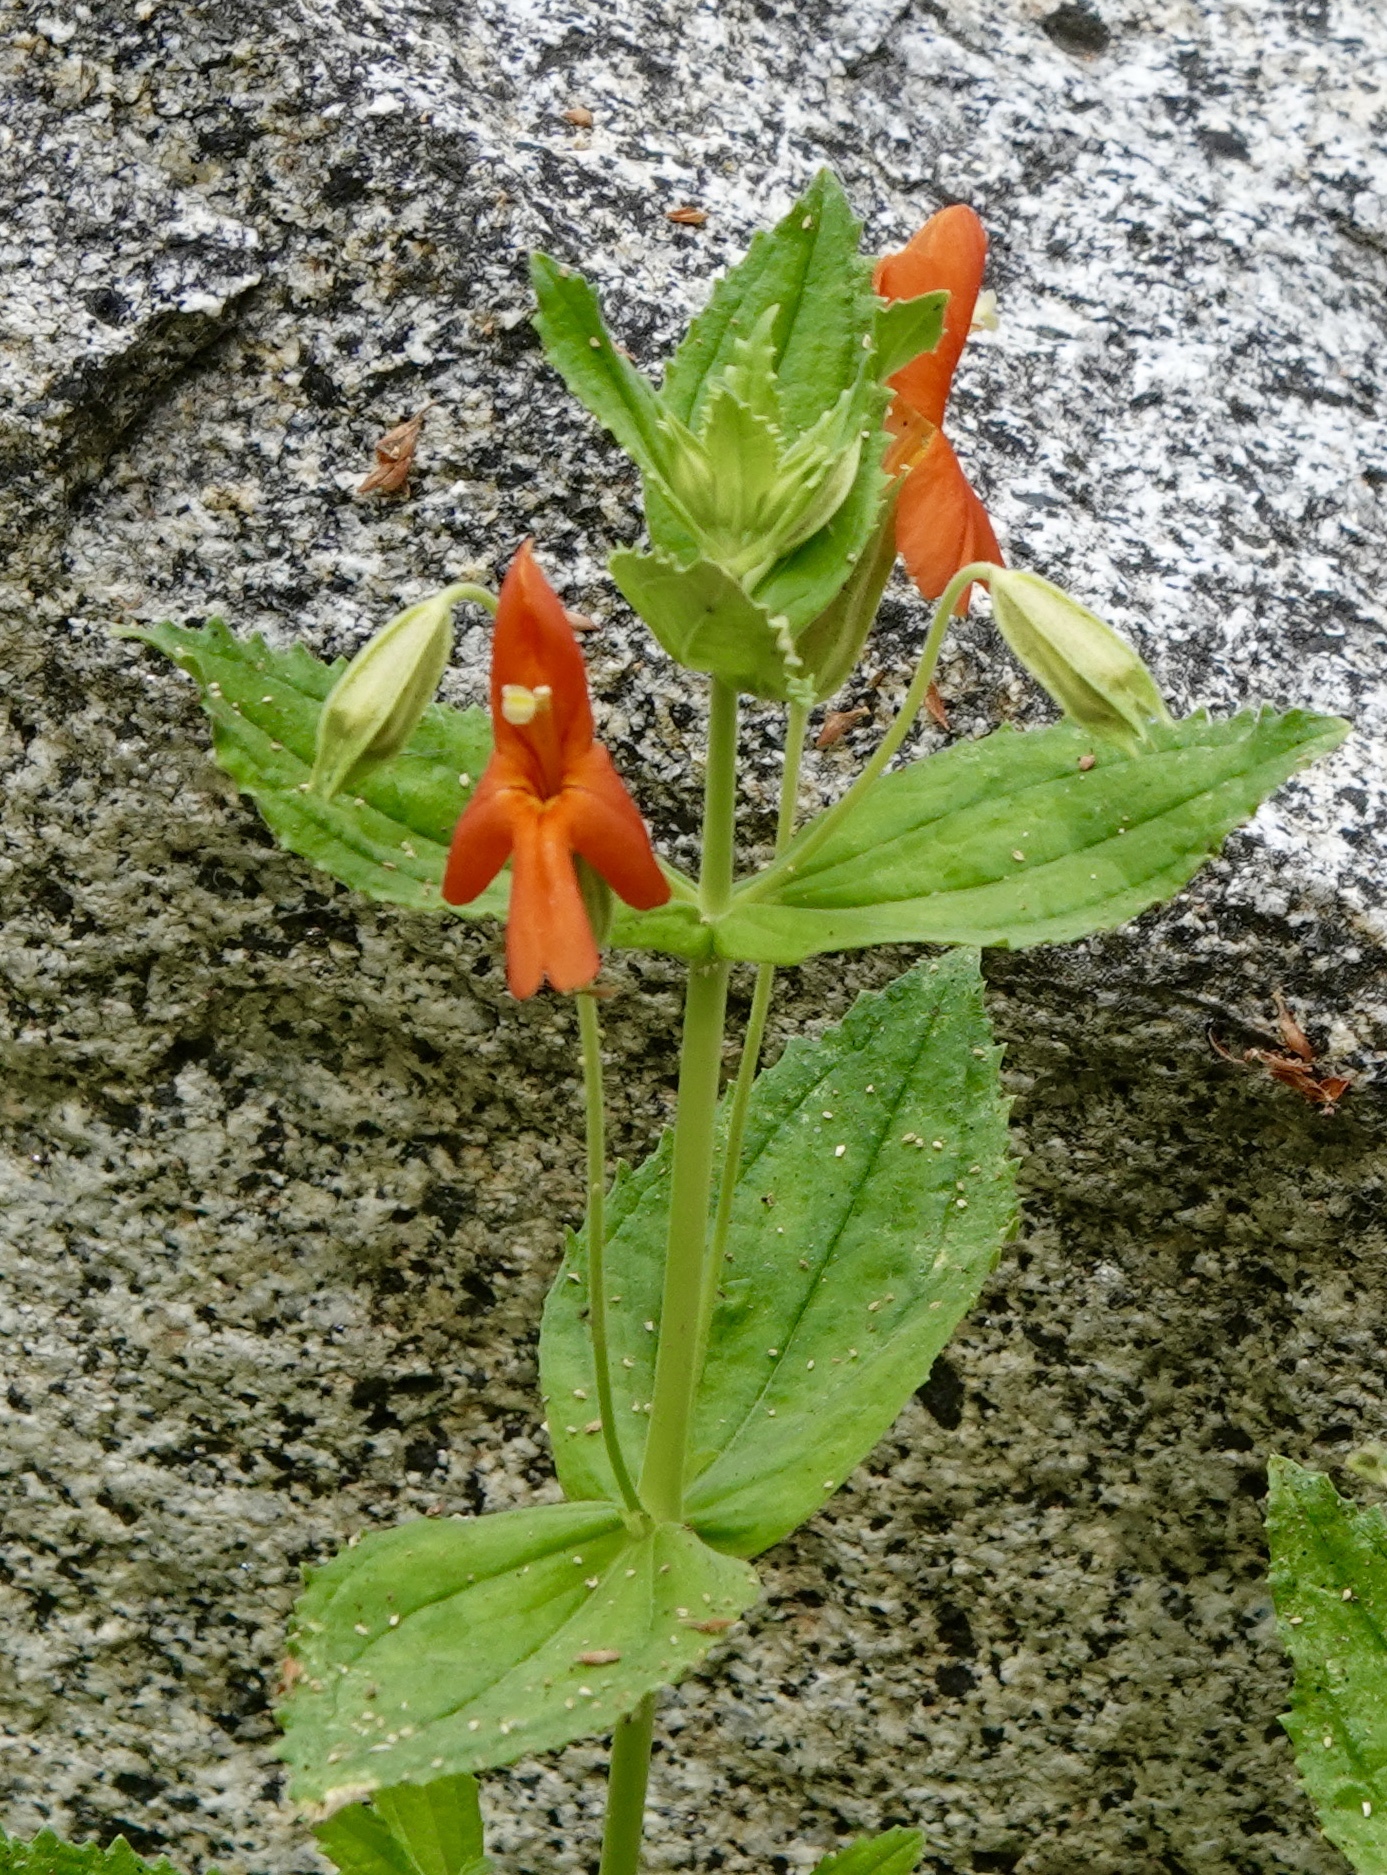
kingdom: Plantae
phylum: Tracheophyta
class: Magnoliopsida
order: Lamiales
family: Phrymaceae
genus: Erythranthe
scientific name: Erythranthe cardinalis
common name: Scarlet monkey-flower
